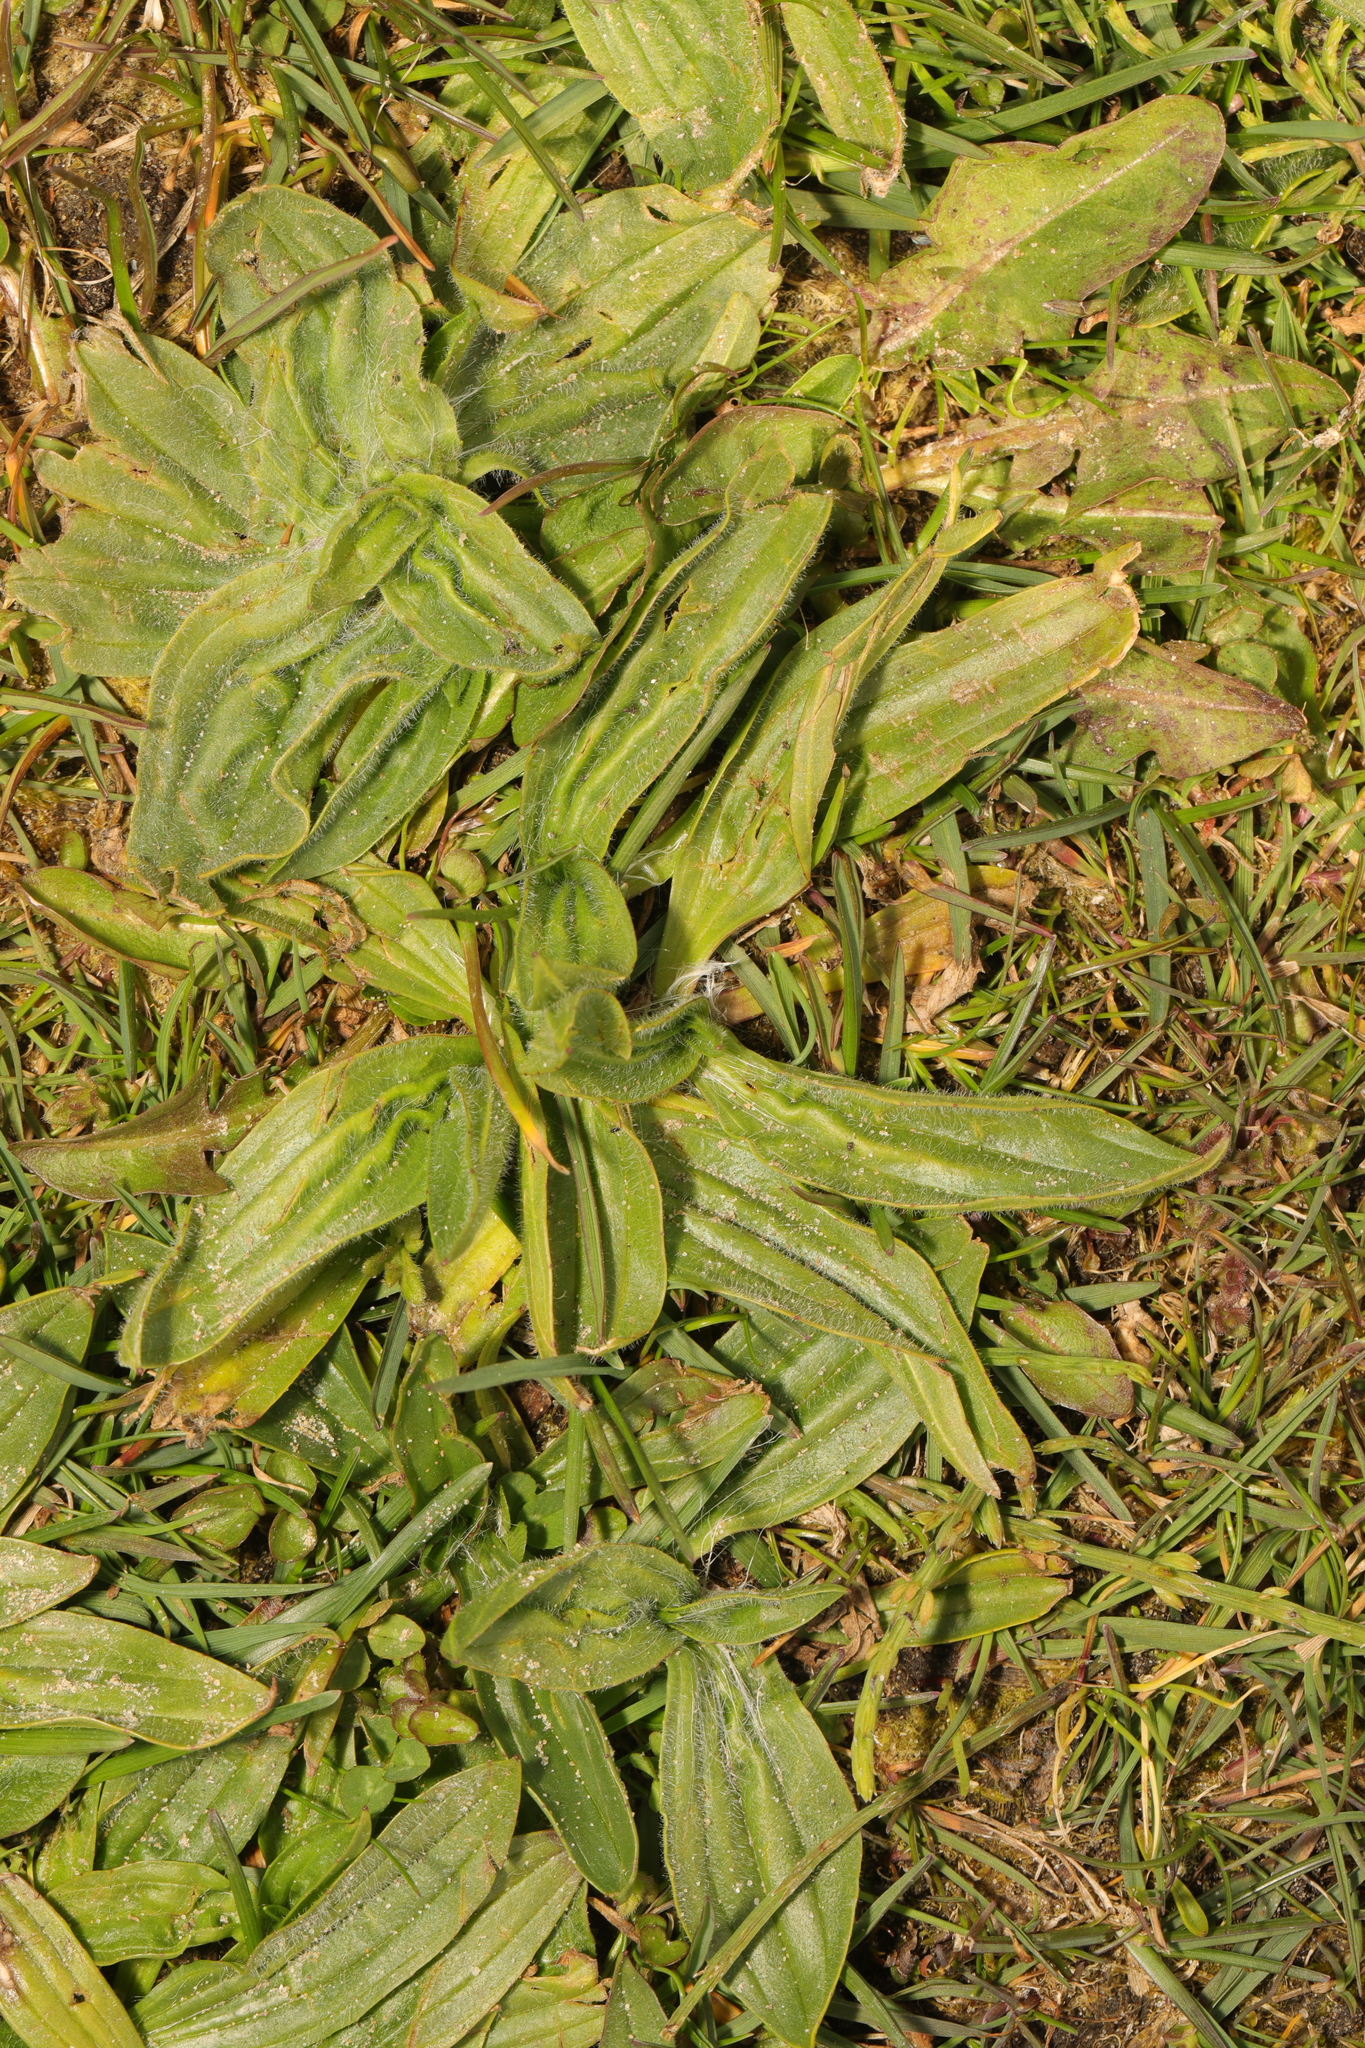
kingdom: Plantae
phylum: Tracheophyta
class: Magnoliopsida
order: Lamiales
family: Plantaginaceae
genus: Plantago
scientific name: Plantago lanceolata
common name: Ribwort plantain
